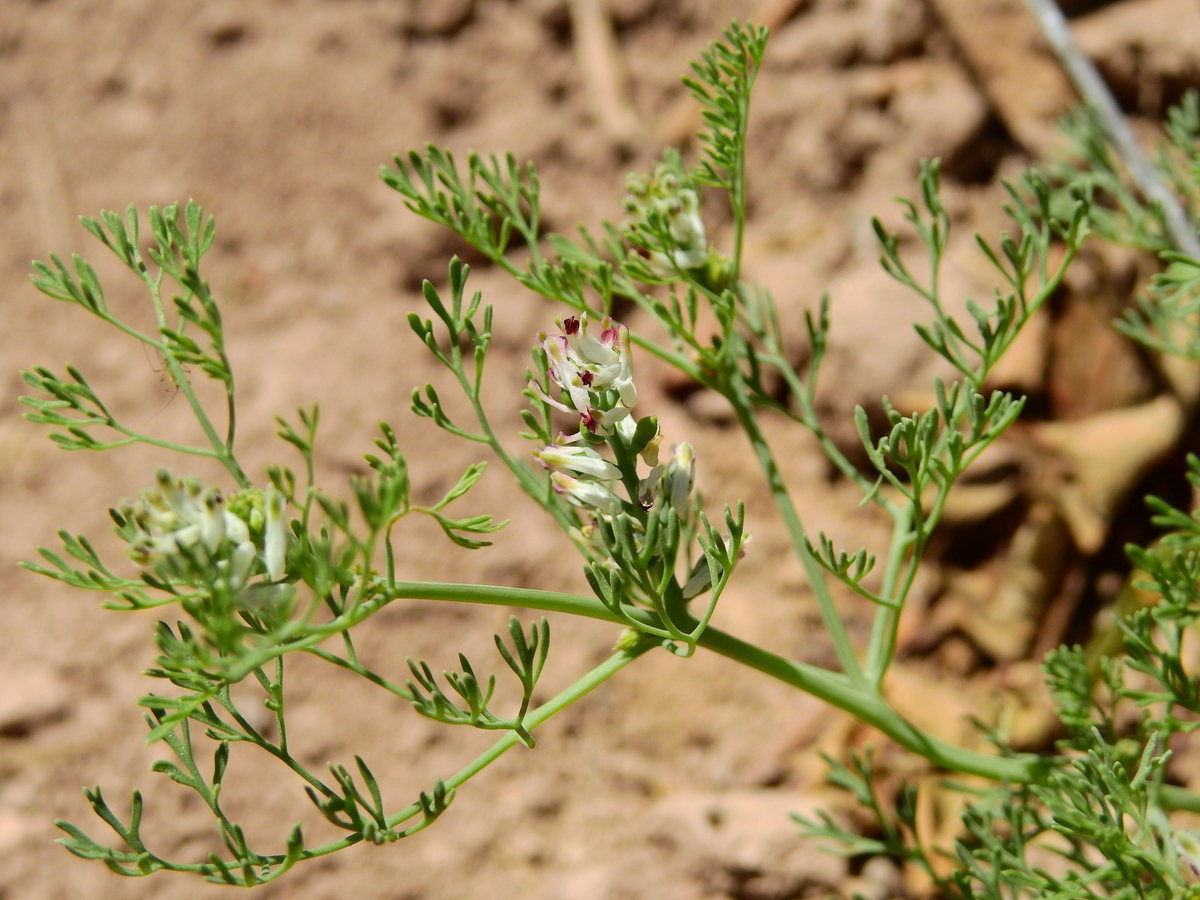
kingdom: Plantae
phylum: Tracheophyta
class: Magnoliopsida
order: Ranunculales
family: Papaveraceae
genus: Fumaria
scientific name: Fumaria parviflora
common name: Fine-leaved fumitory
